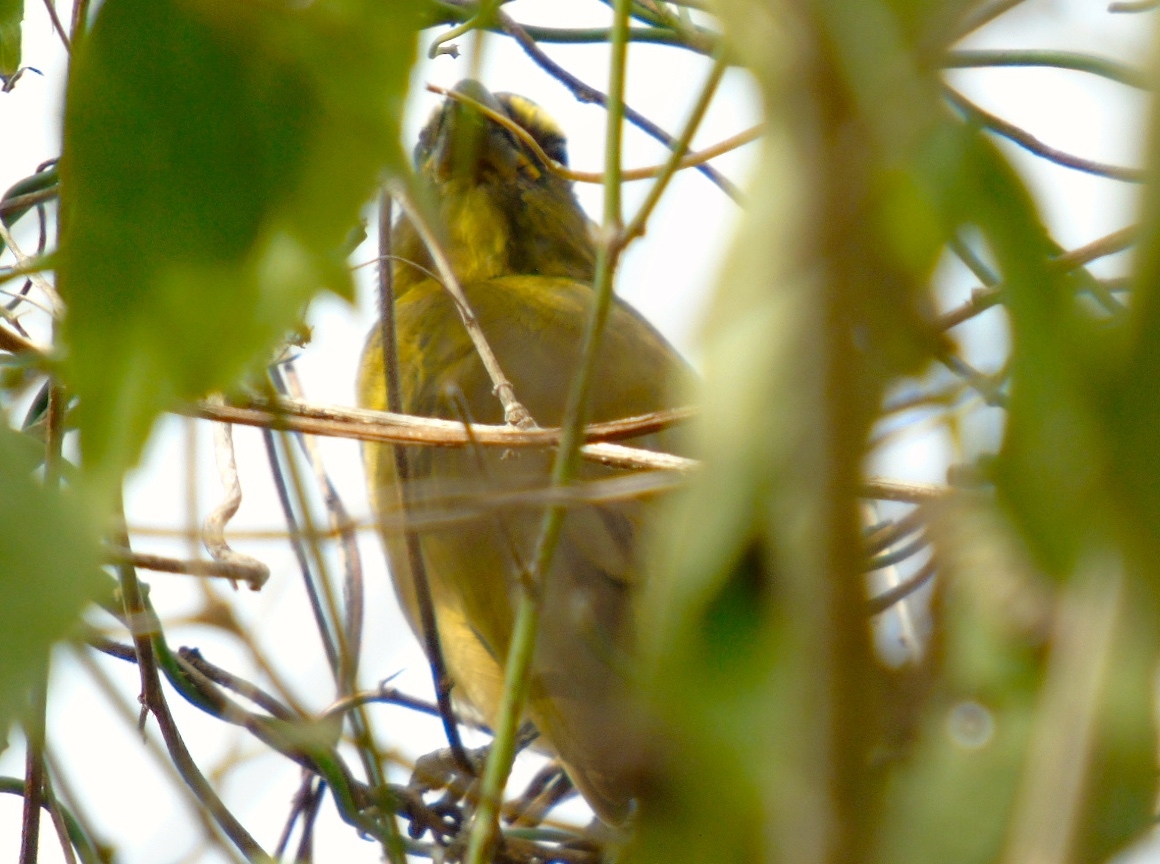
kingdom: Animalia
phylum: Chordata
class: Aves
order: Passeriformes
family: Thraupidae
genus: Saltator
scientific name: Saltator grandis
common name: Cinnamon-bellied saltator
